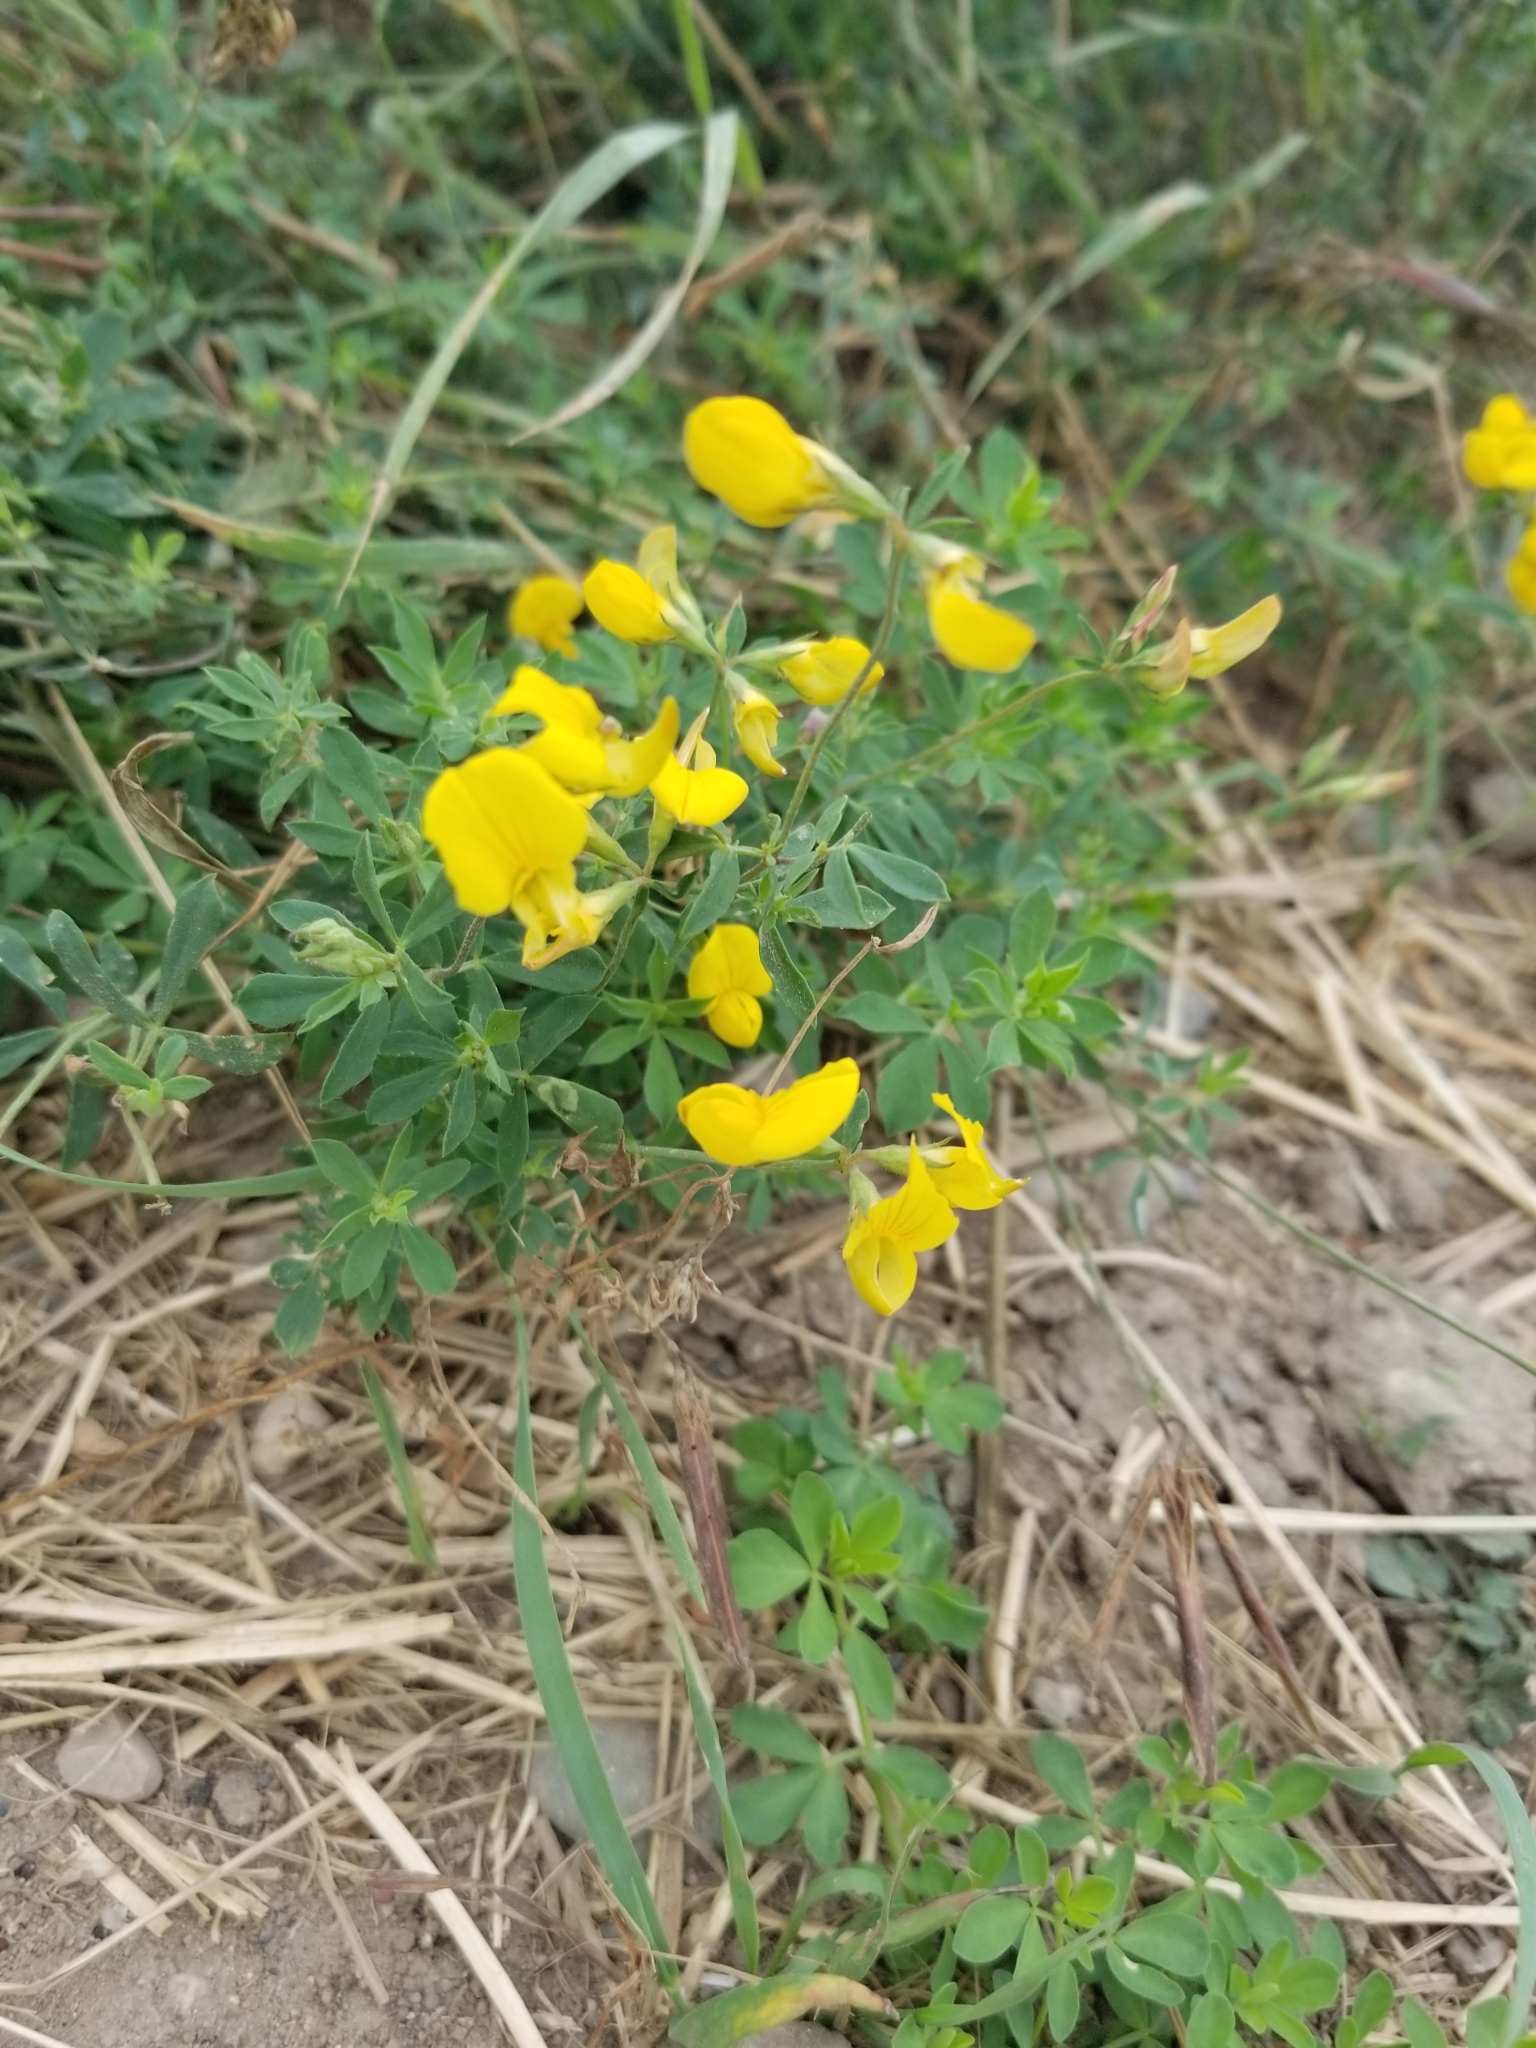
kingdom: Plantae
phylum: Tracheophyta
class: Magnoliopsida
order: Fabales
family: Fabaceae
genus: Lotus
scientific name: Lotus corniculatus
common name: Common bird's-foot-trefoil
